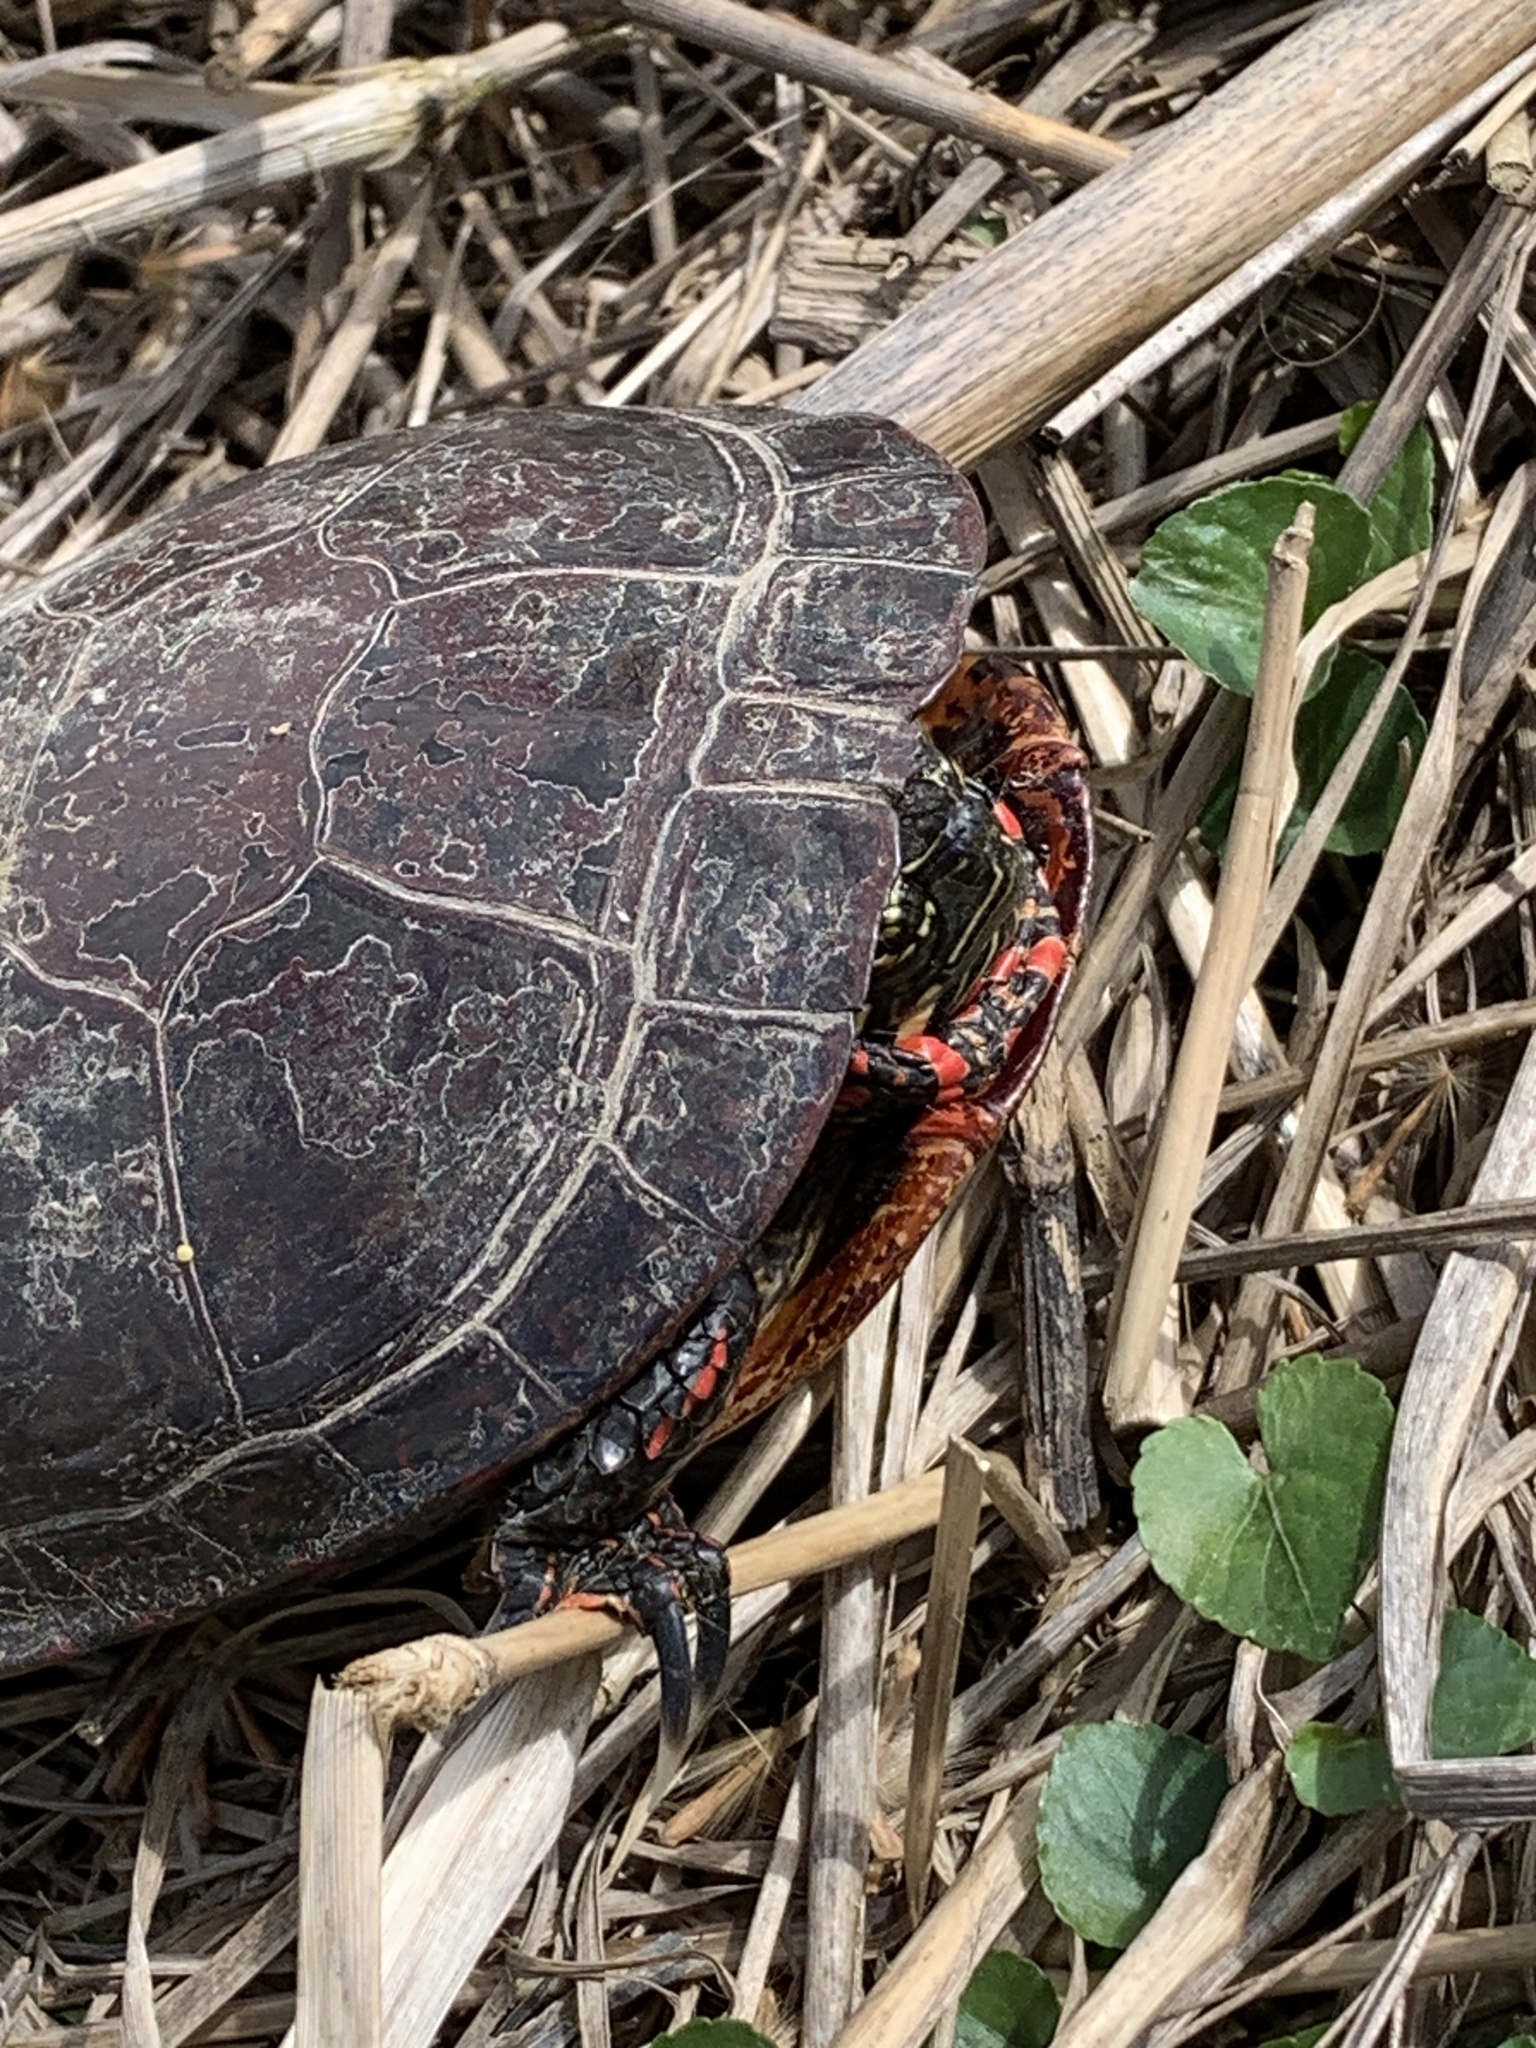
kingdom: Animalia
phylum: Chordata
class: Testudines
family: Emydidae
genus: Chrysemys
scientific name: Chrysemys picta
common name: Painted turtle
